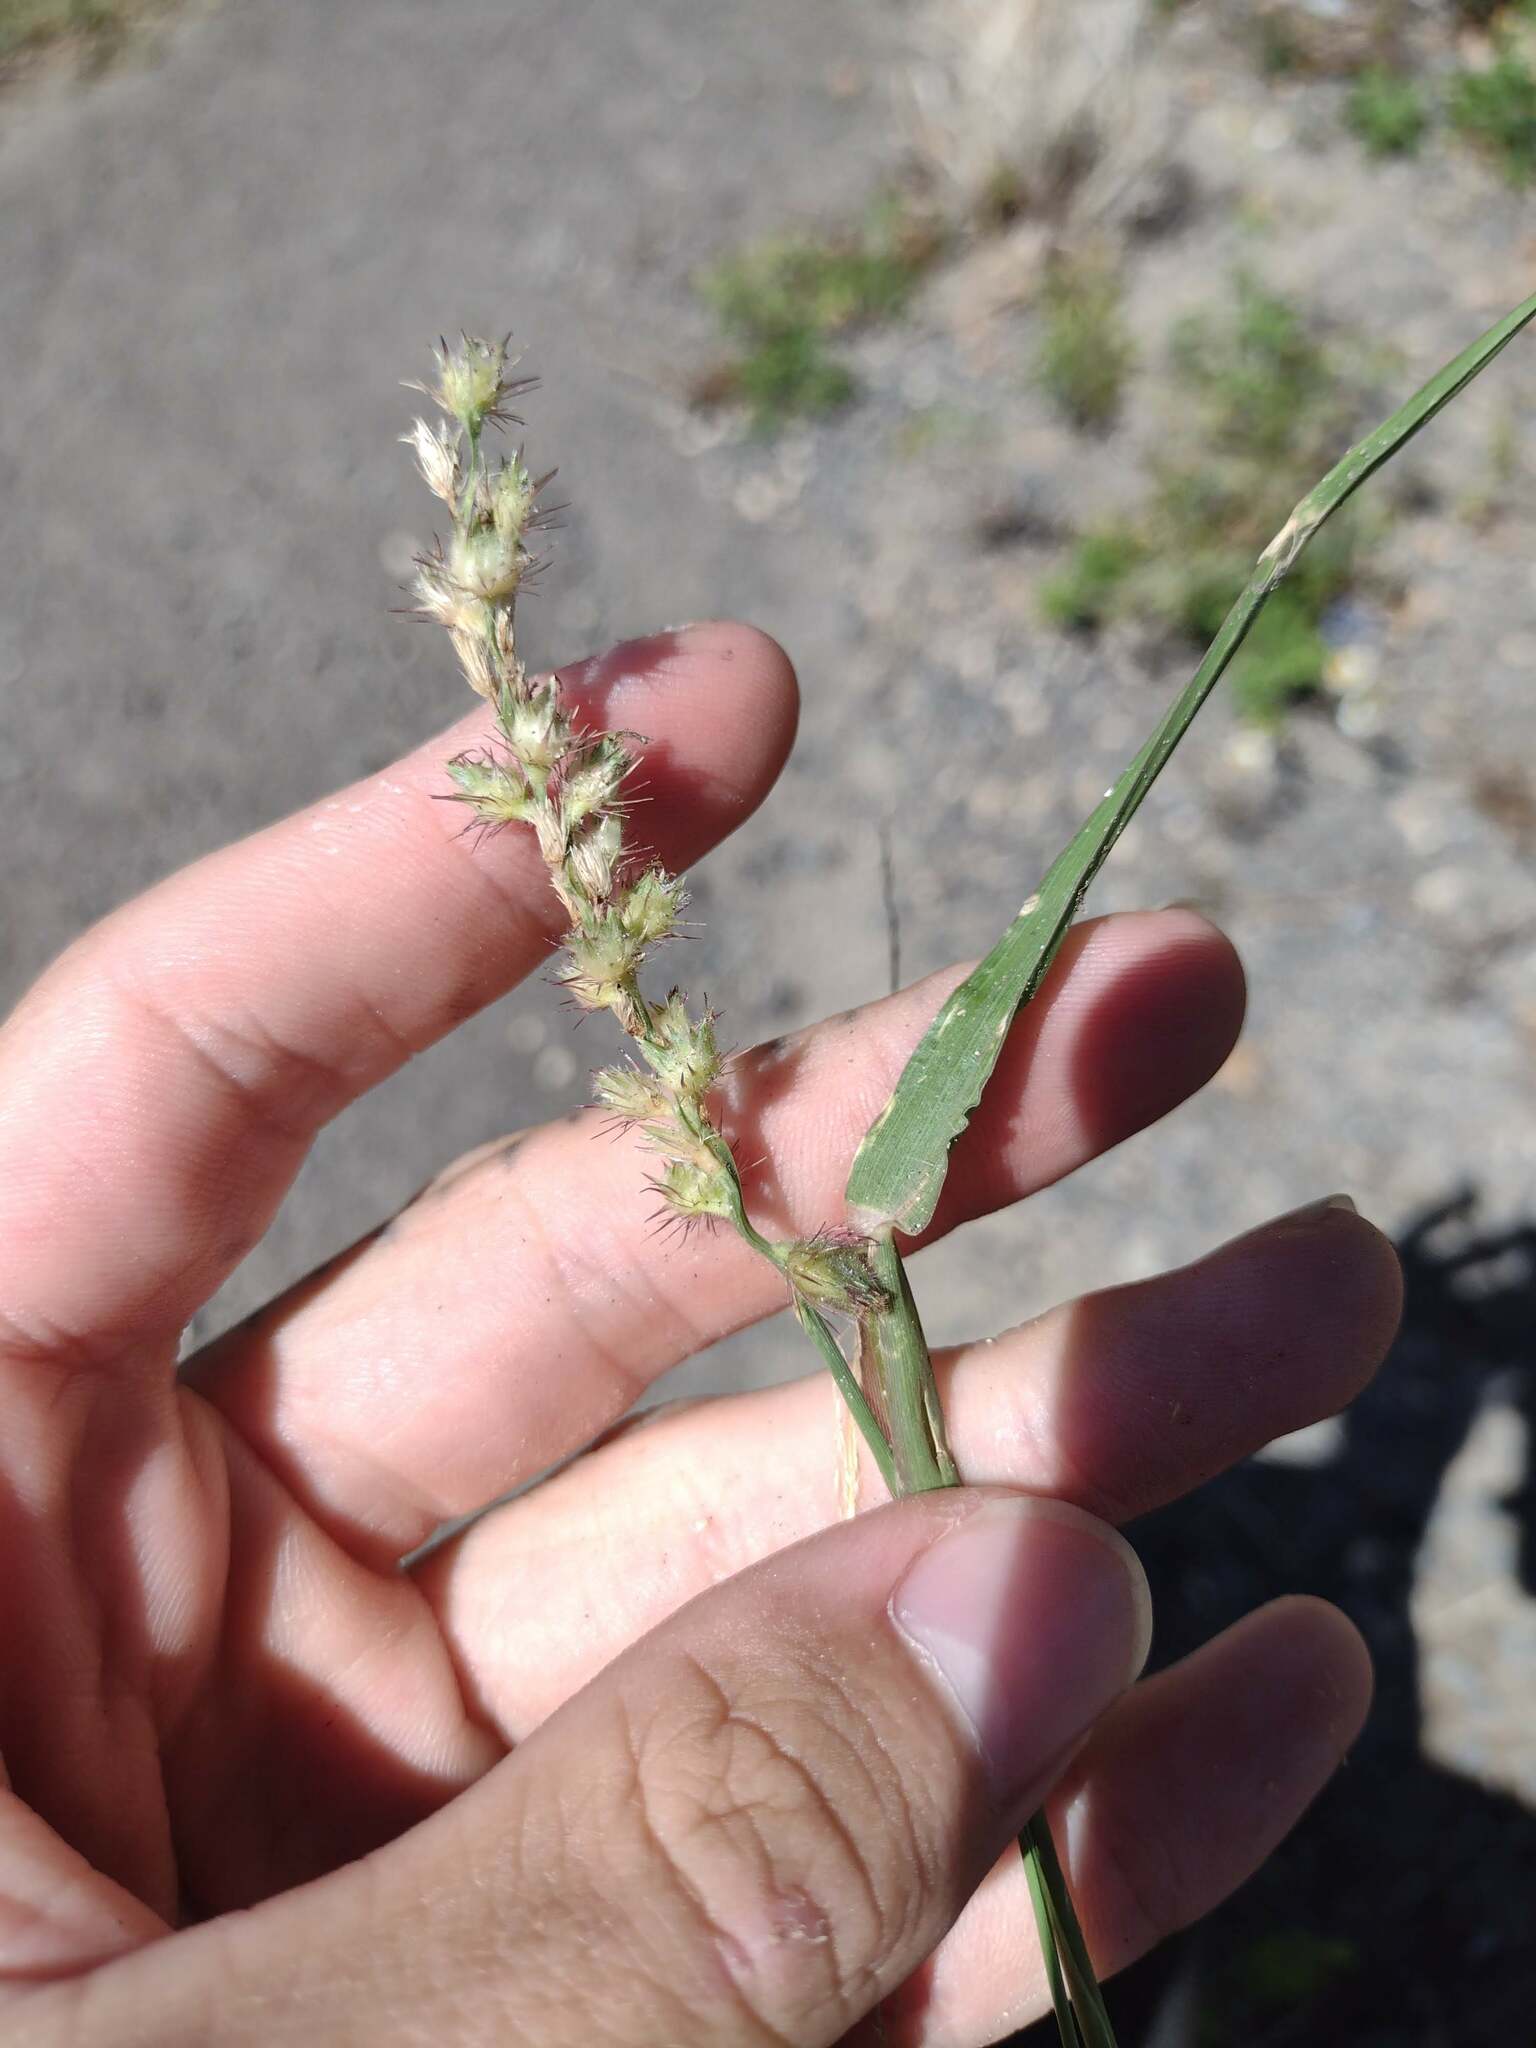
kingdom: Plantae
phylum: Tracheophyta
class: Liliopsida
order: Poales
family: Poaceae
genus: Cenchrus
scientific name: Cenchrus echinatus
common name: Southern sandbur
